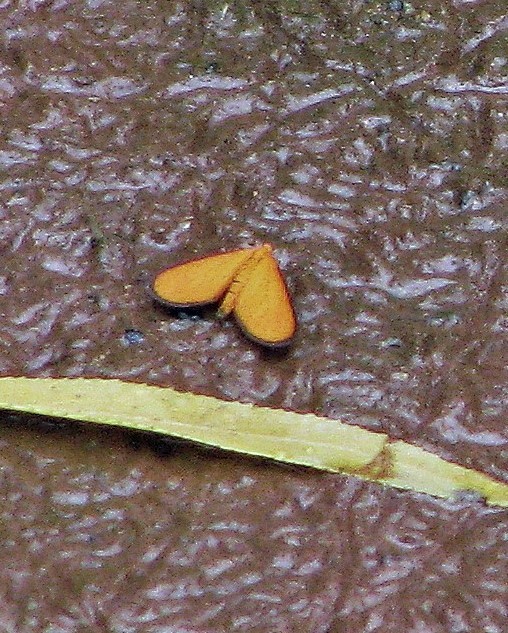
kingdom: Animalia
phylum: Arthropoda
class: Insecta
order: Lepidoptera
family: Geometridae
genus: Eudulophasia
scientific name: Eudulophasia invaria
